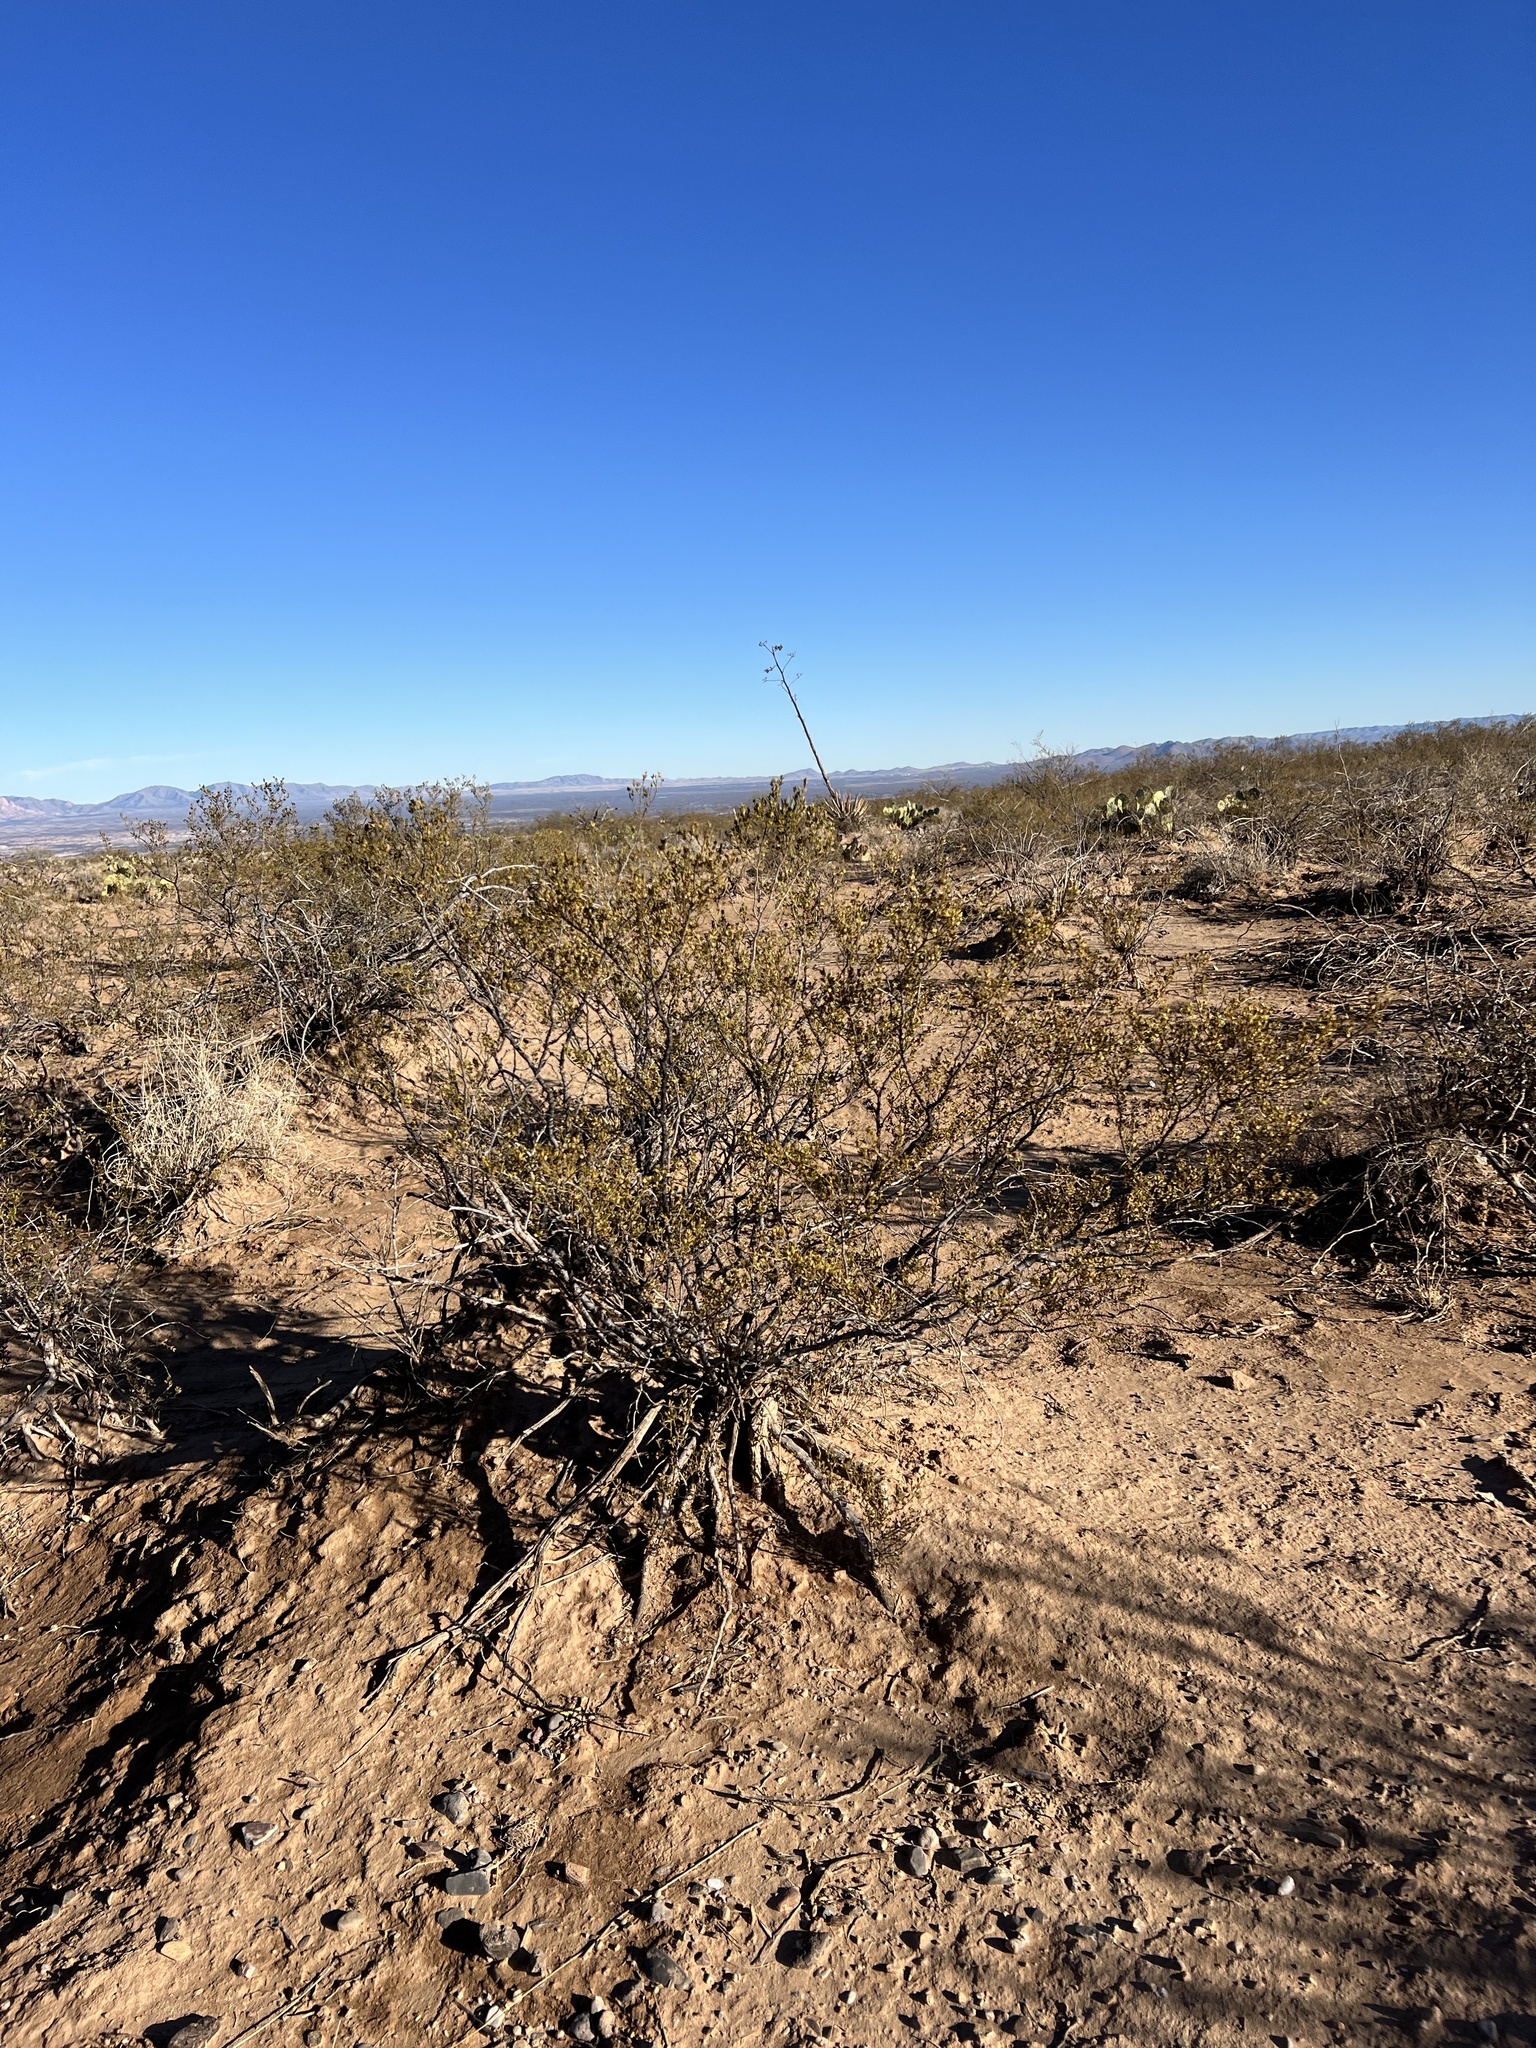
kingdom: Plantae
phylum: Tracheophyta
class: Magnoliopsida
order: Zygophyllales
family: Zygophyllaceae
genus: Larrea
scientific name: Larrea tridentata
